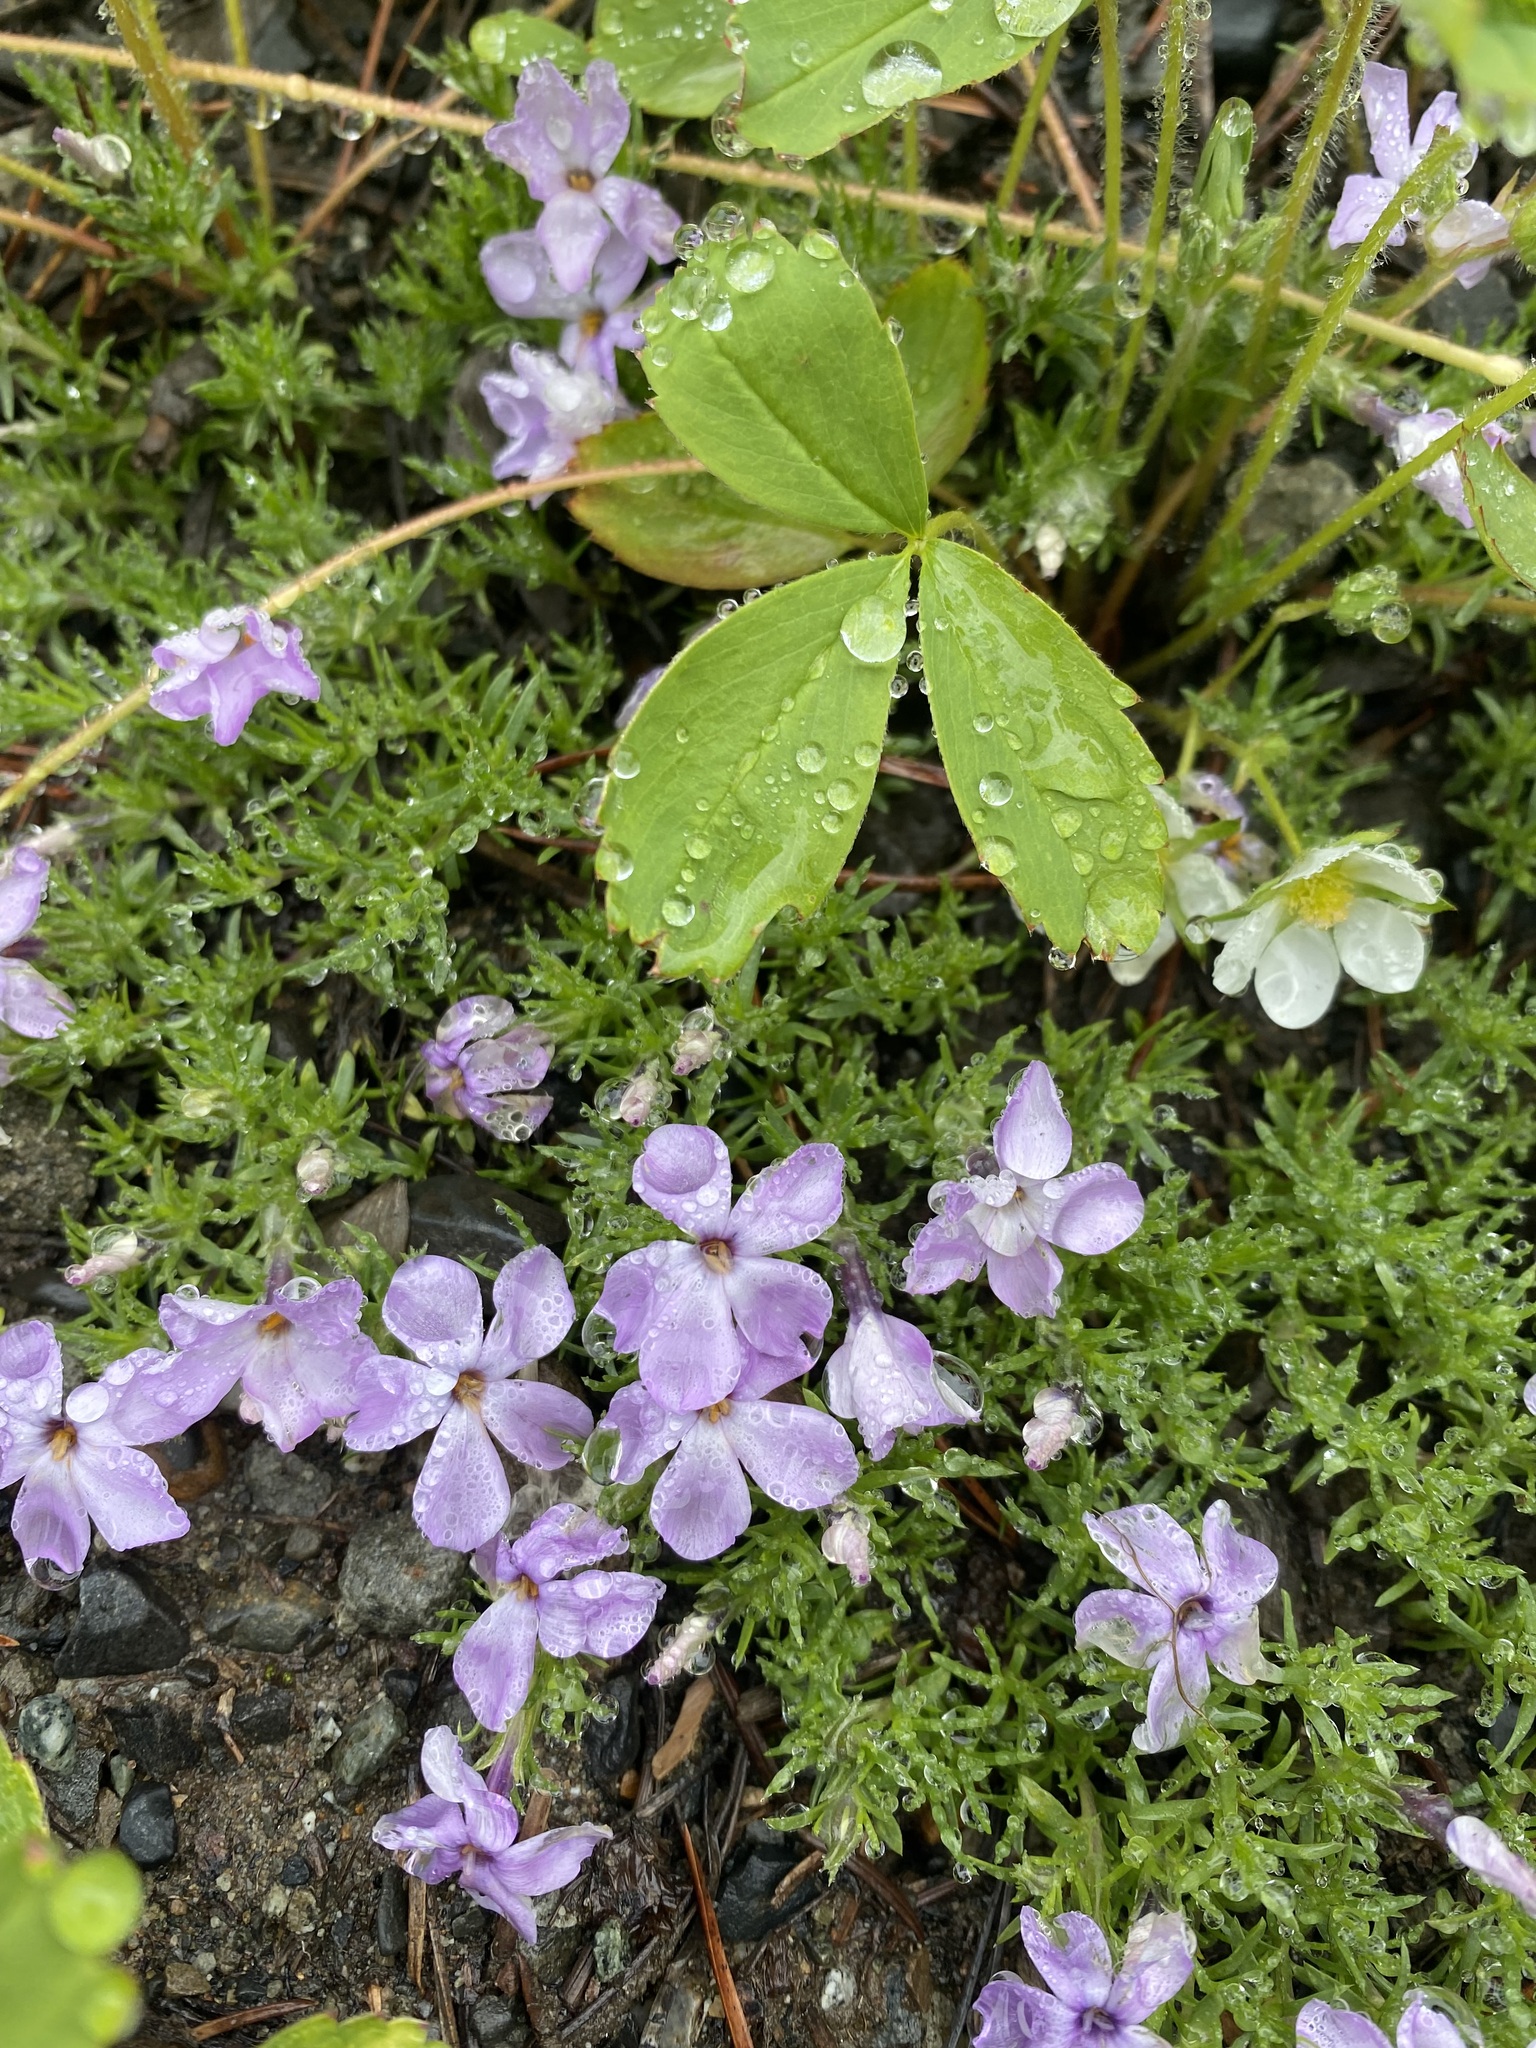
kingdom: Plantae
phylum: Tracheophyta
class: Magnoliopsida
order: Ericales
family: Polemoniaceae
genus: Phlox
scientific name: Phlox diffusa
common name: Mat phlox
